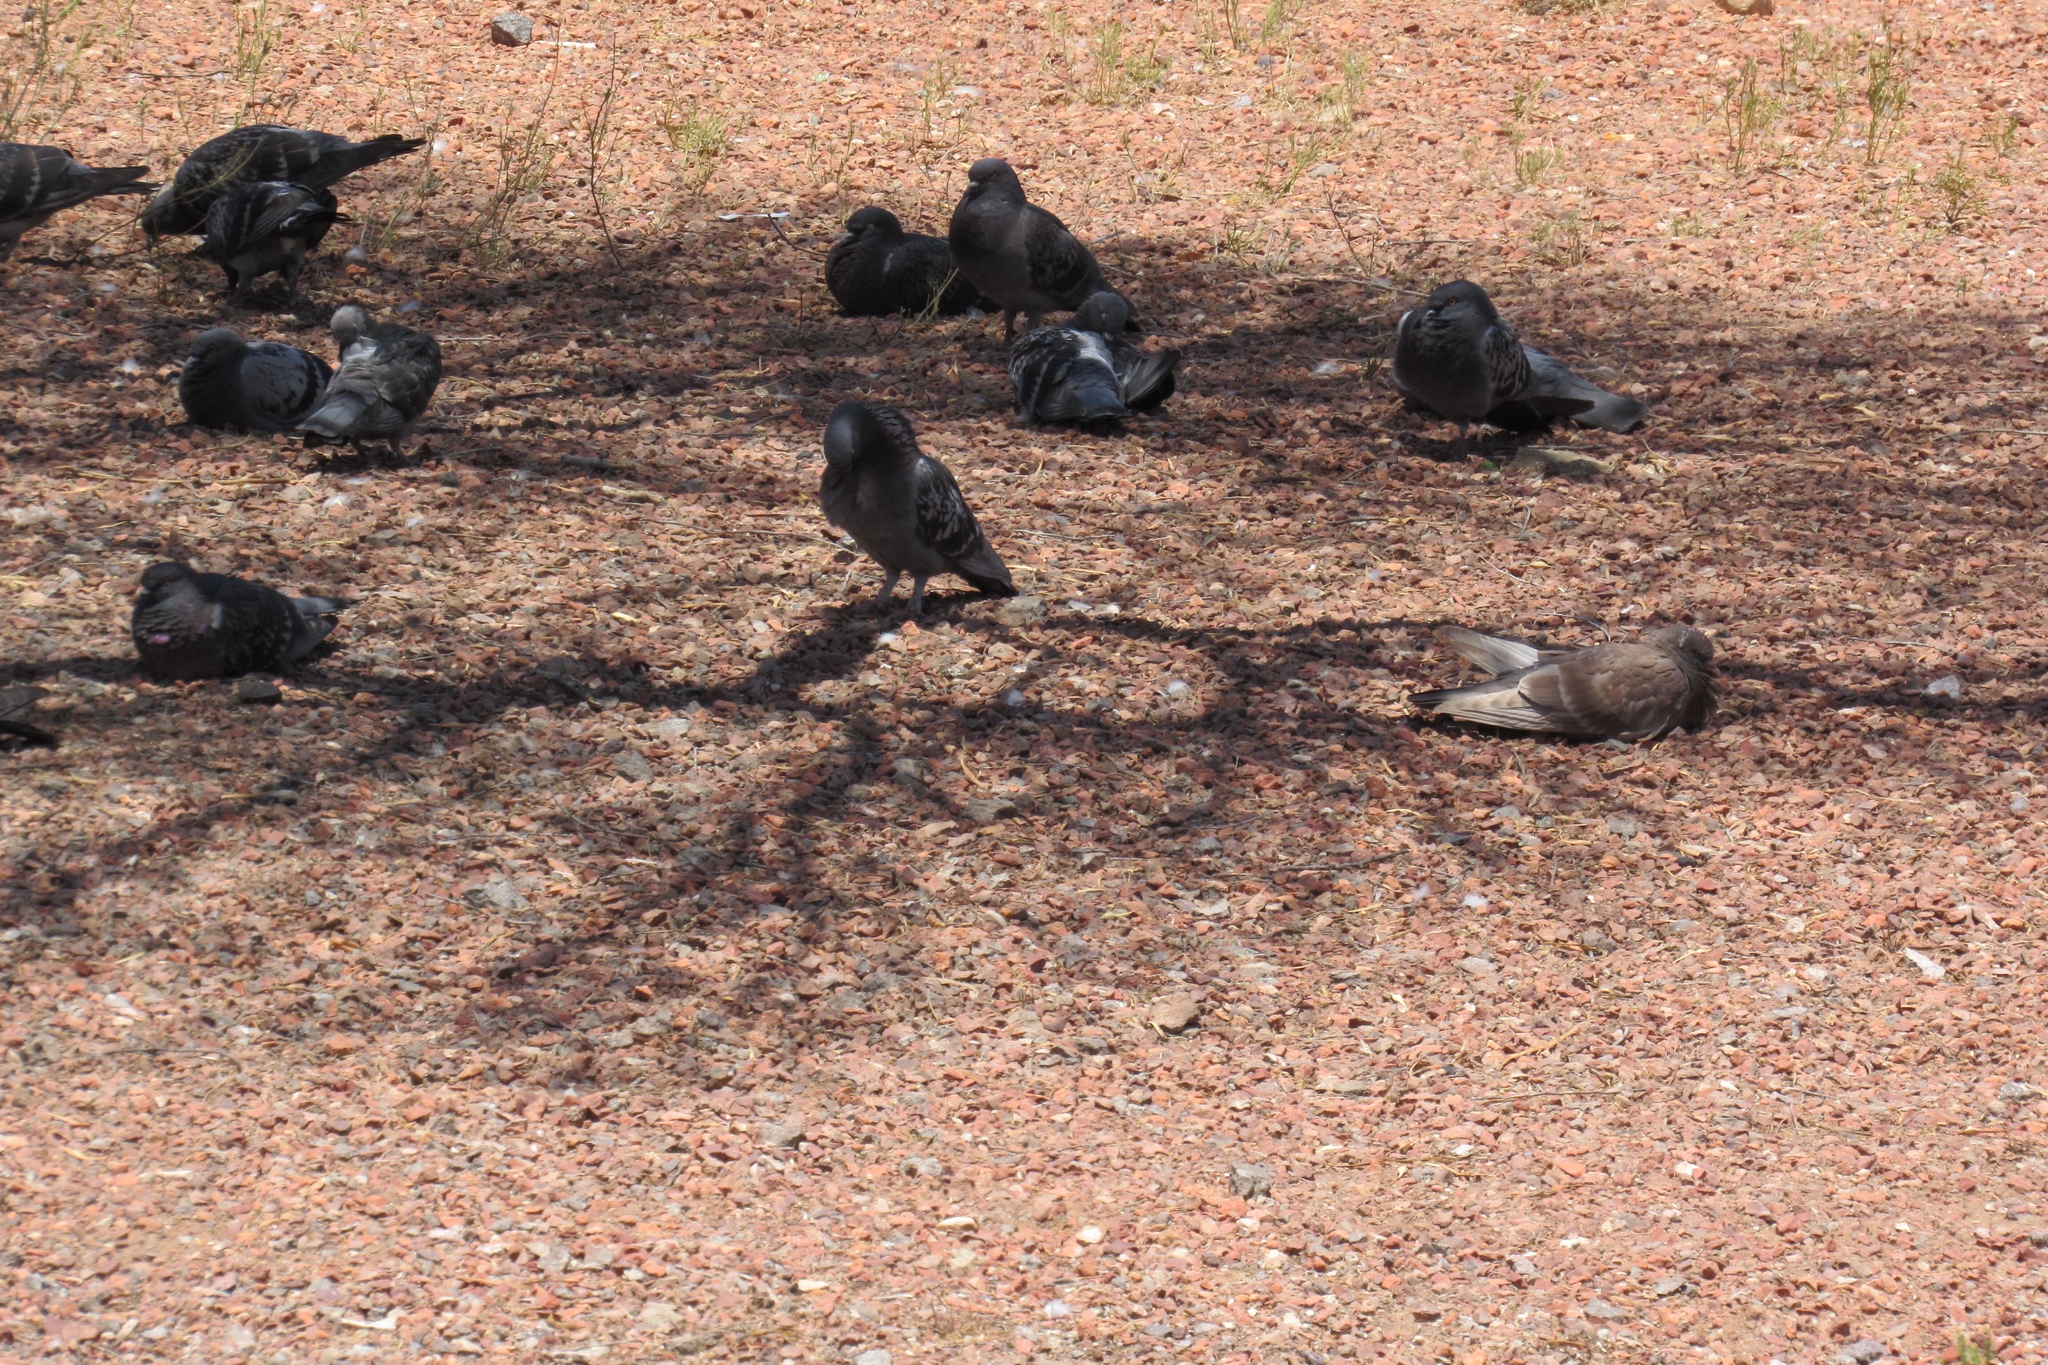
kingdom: Animalia
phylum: Chordata
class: Aves
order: Columbiformes
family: Columbidae
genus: Columba
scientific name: Columba livia
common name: Rock pigeon
